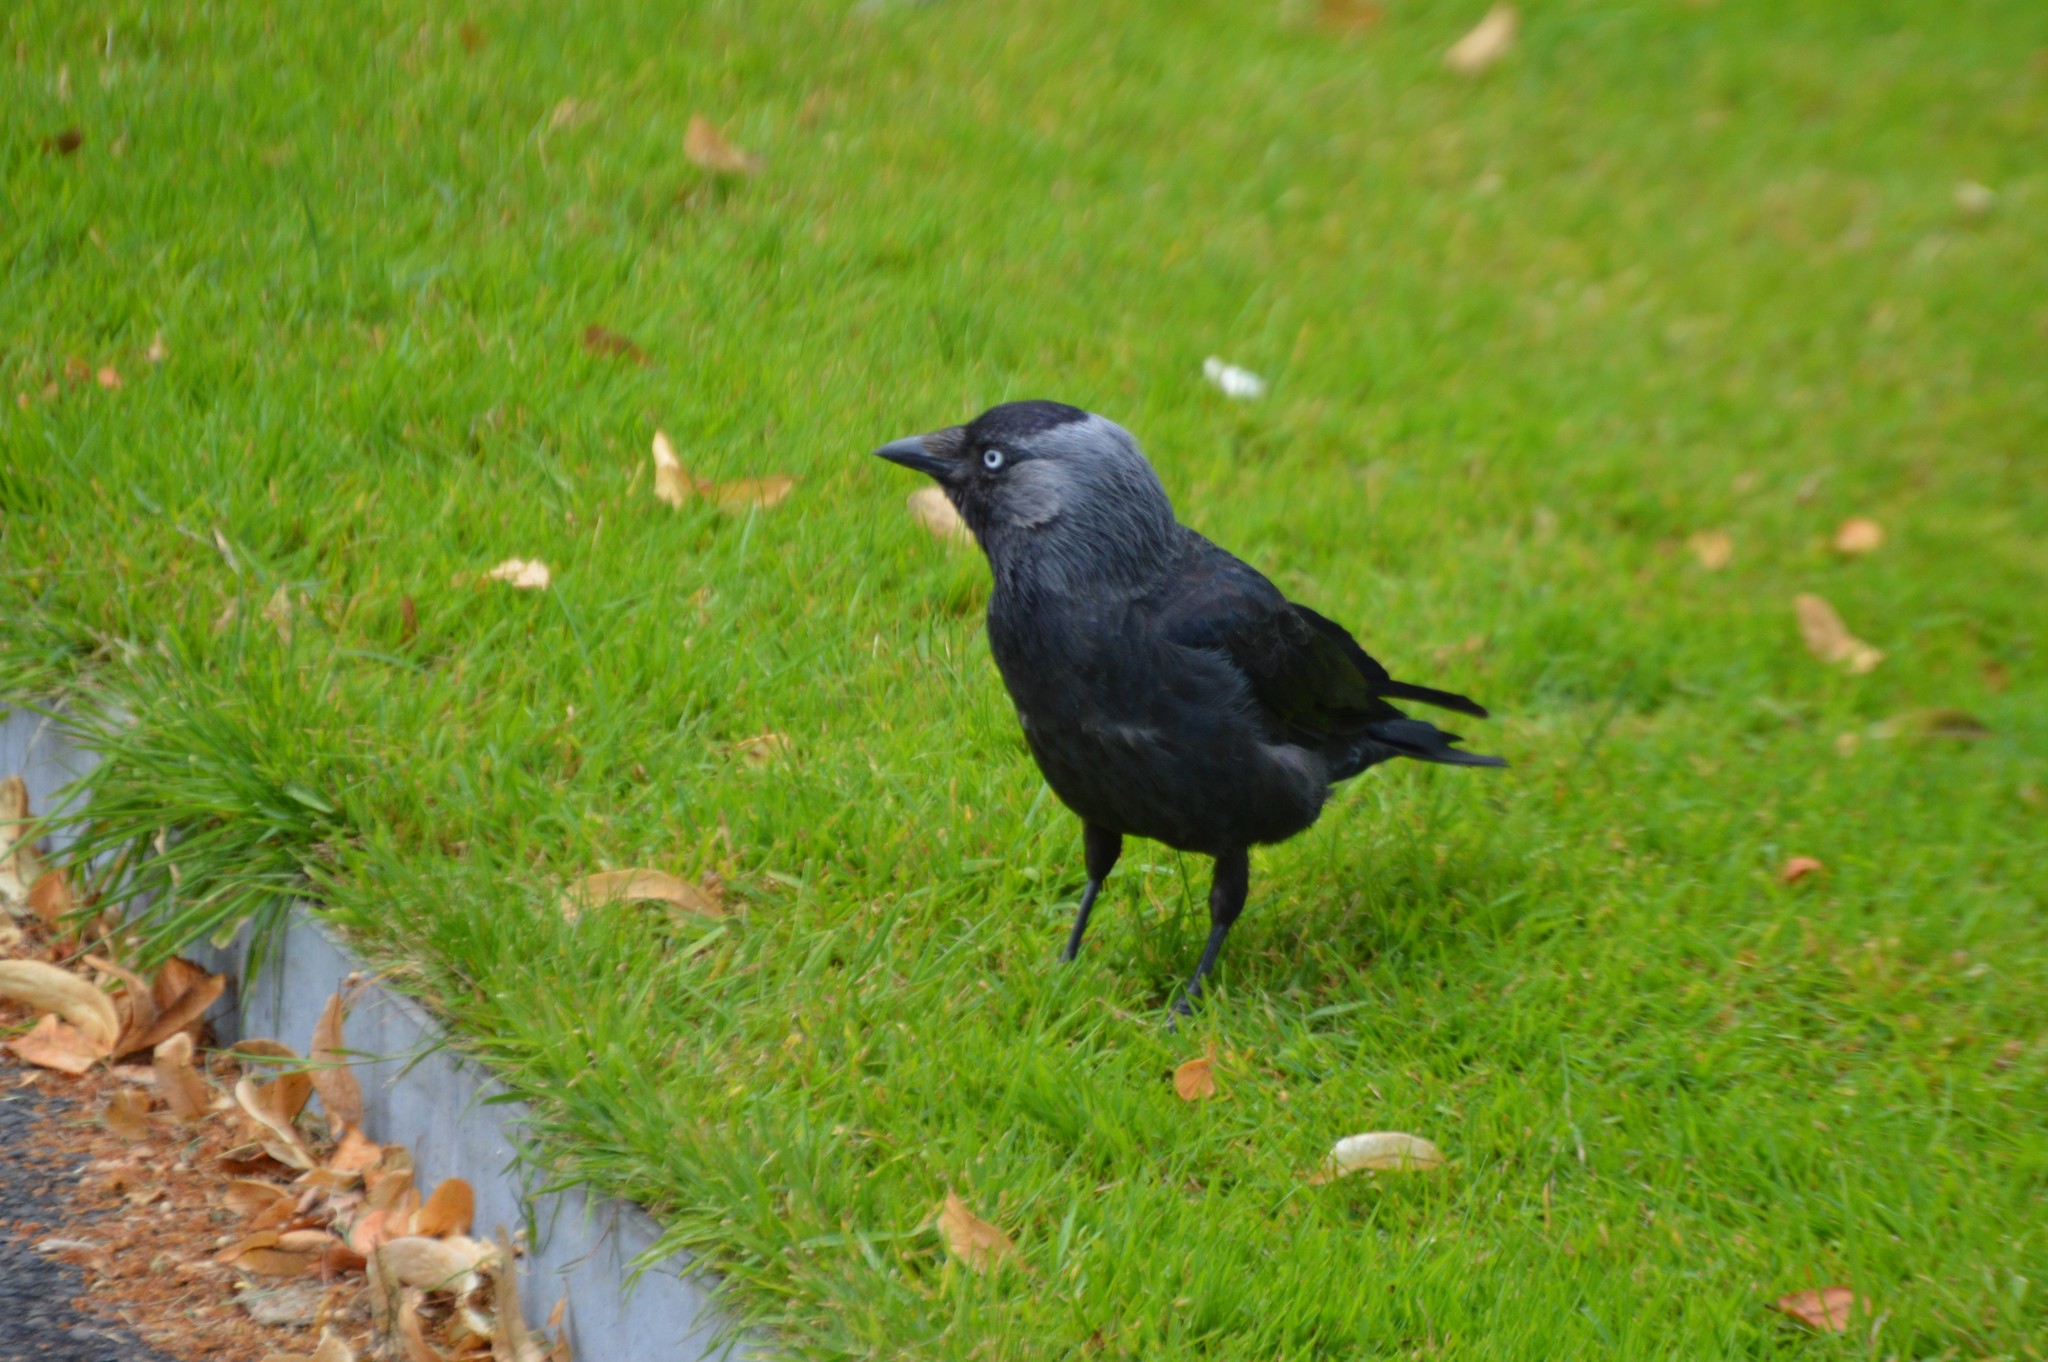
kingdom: Animalia
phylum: Chordata
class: Aves
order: Passeriformes
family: Corvidae
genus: Coloeus
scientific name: Coloeus monedula
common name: Western jackdaw
